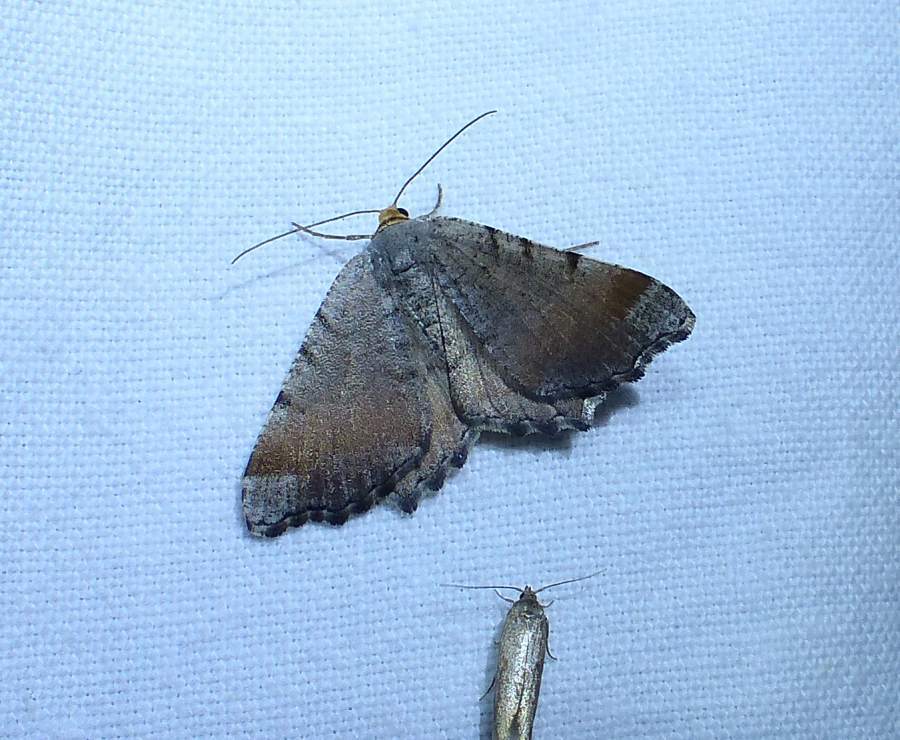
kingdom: Animalia
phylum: Arthropoda
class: Insecta
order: Lepidoptera
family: Geometridae
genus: Macaria
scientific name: Macaria transitaria
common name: Blurry chocolate angle
